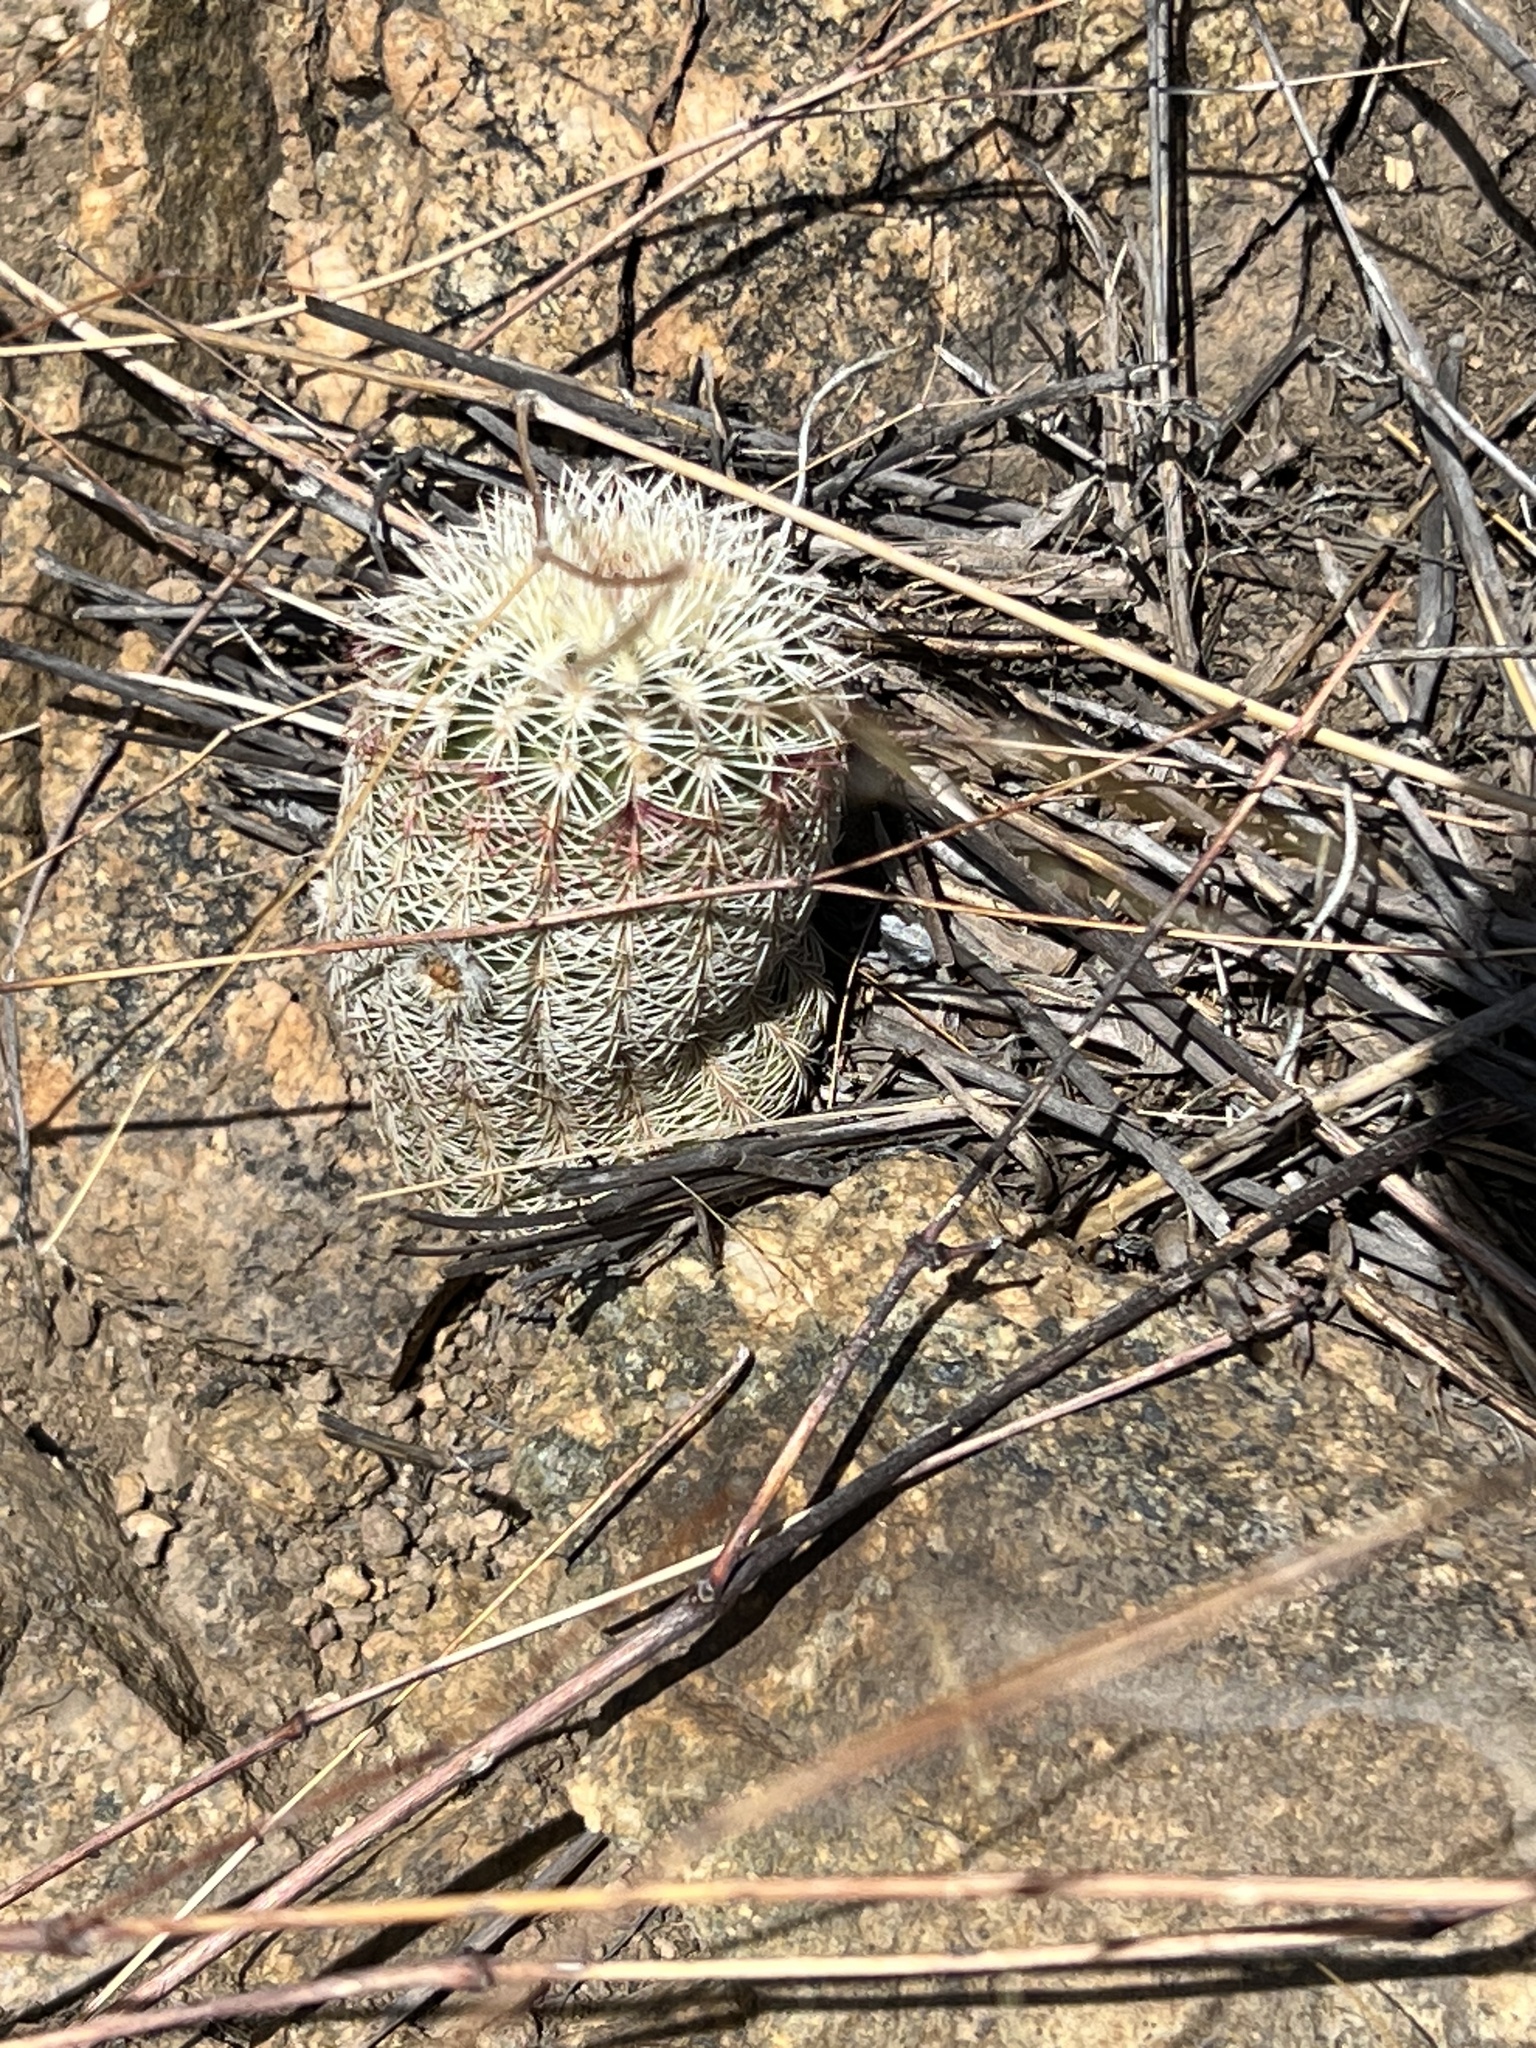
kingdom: Plantae
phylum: Tracheophyta
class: Magnoliopsida
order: Caryophyllales
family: Cactaceae
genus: Echinocereus
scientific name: Echinocereus rigidissimus
